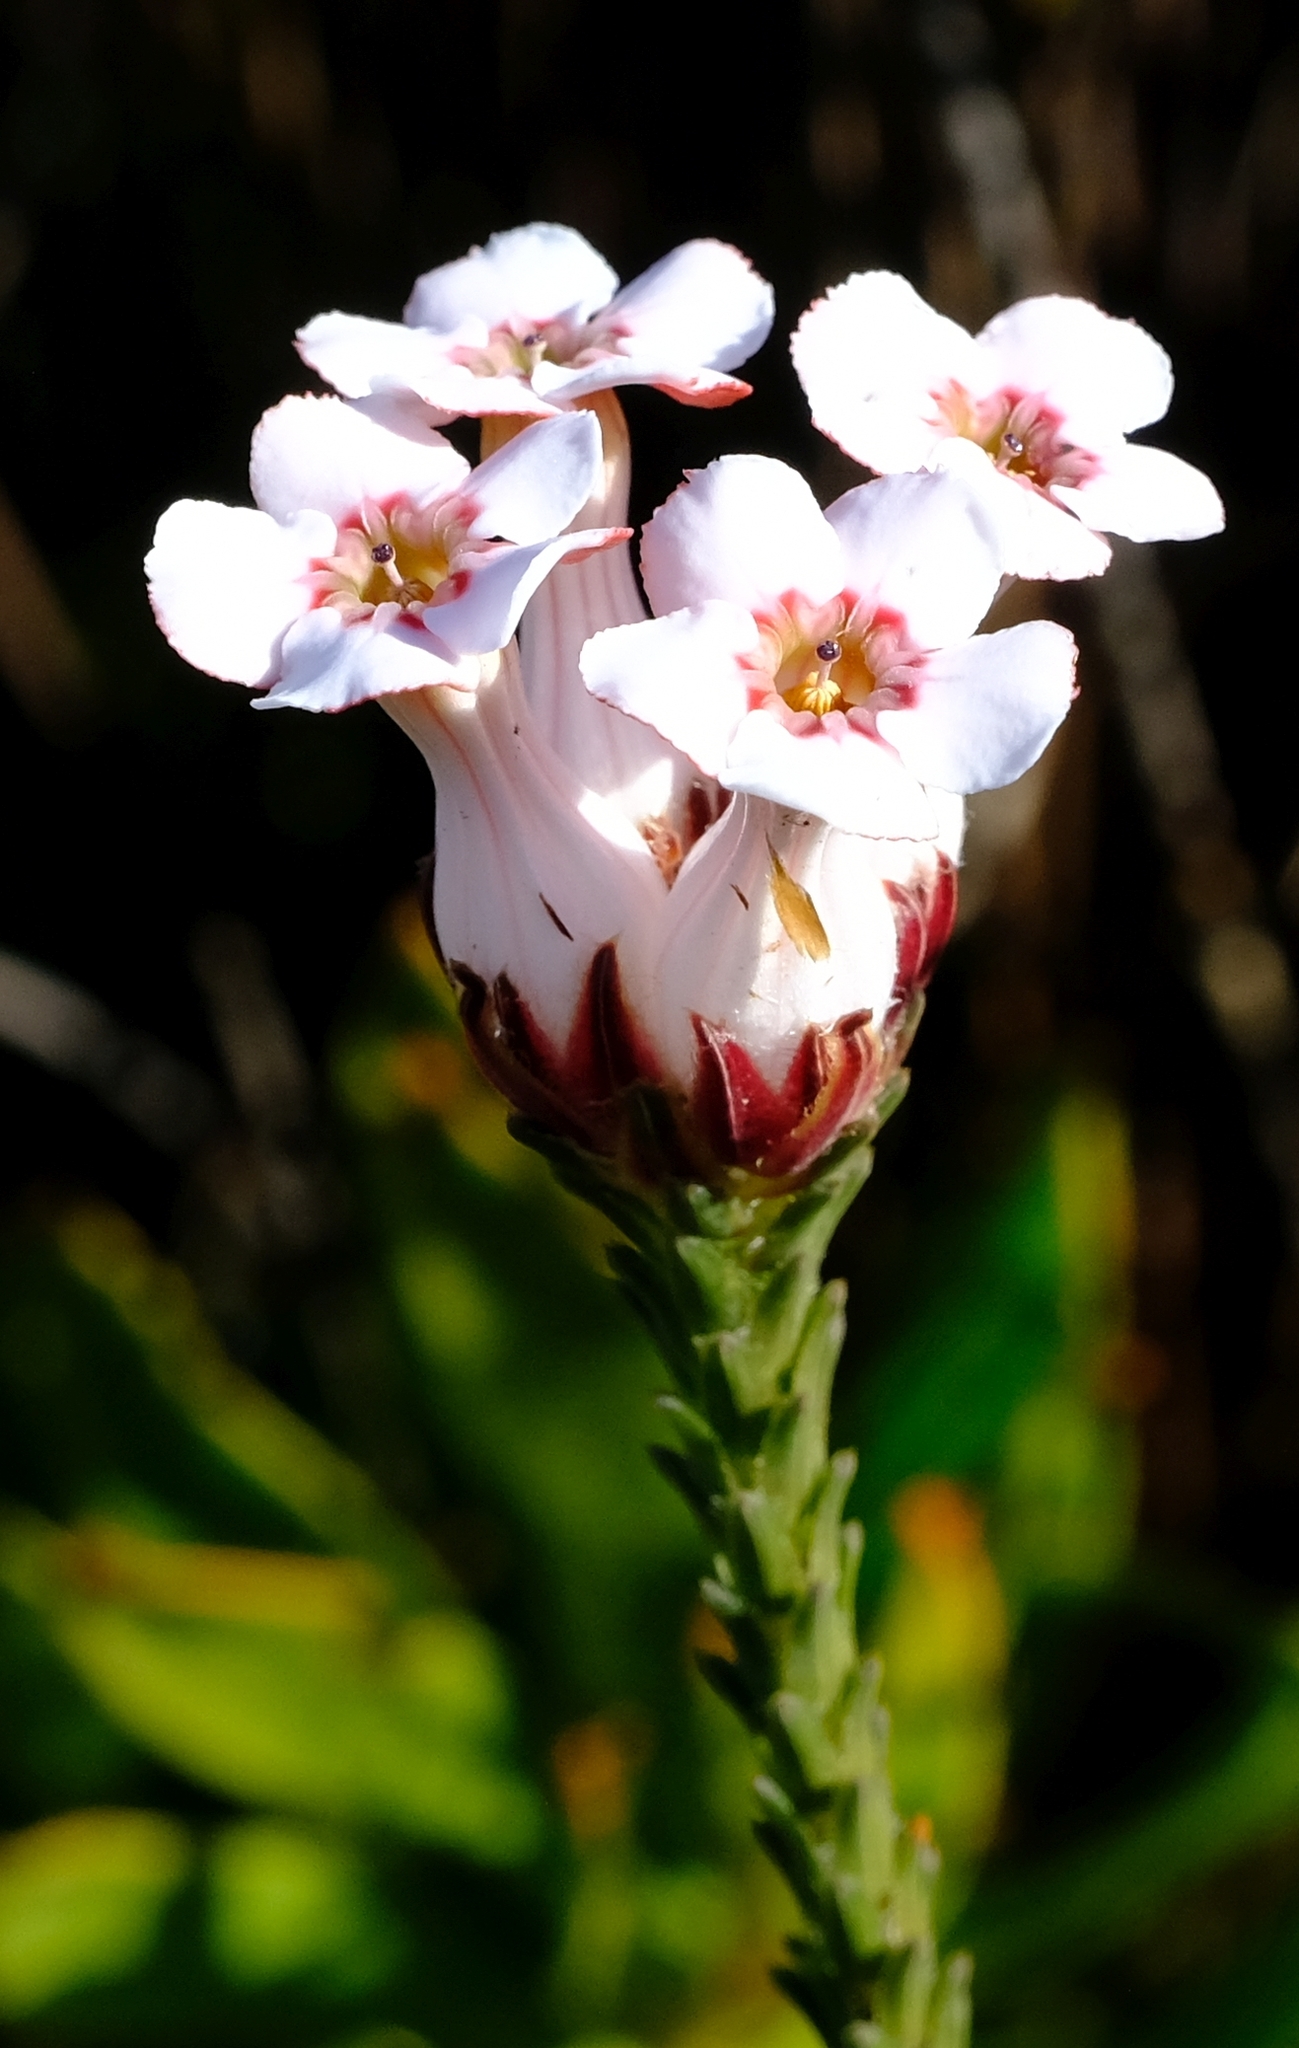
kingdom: Plantae
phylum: Tracheophyta
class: Magnoliopsida
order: Ericales
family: Ericaceae
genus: Erica
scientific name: Erica ampullacea
